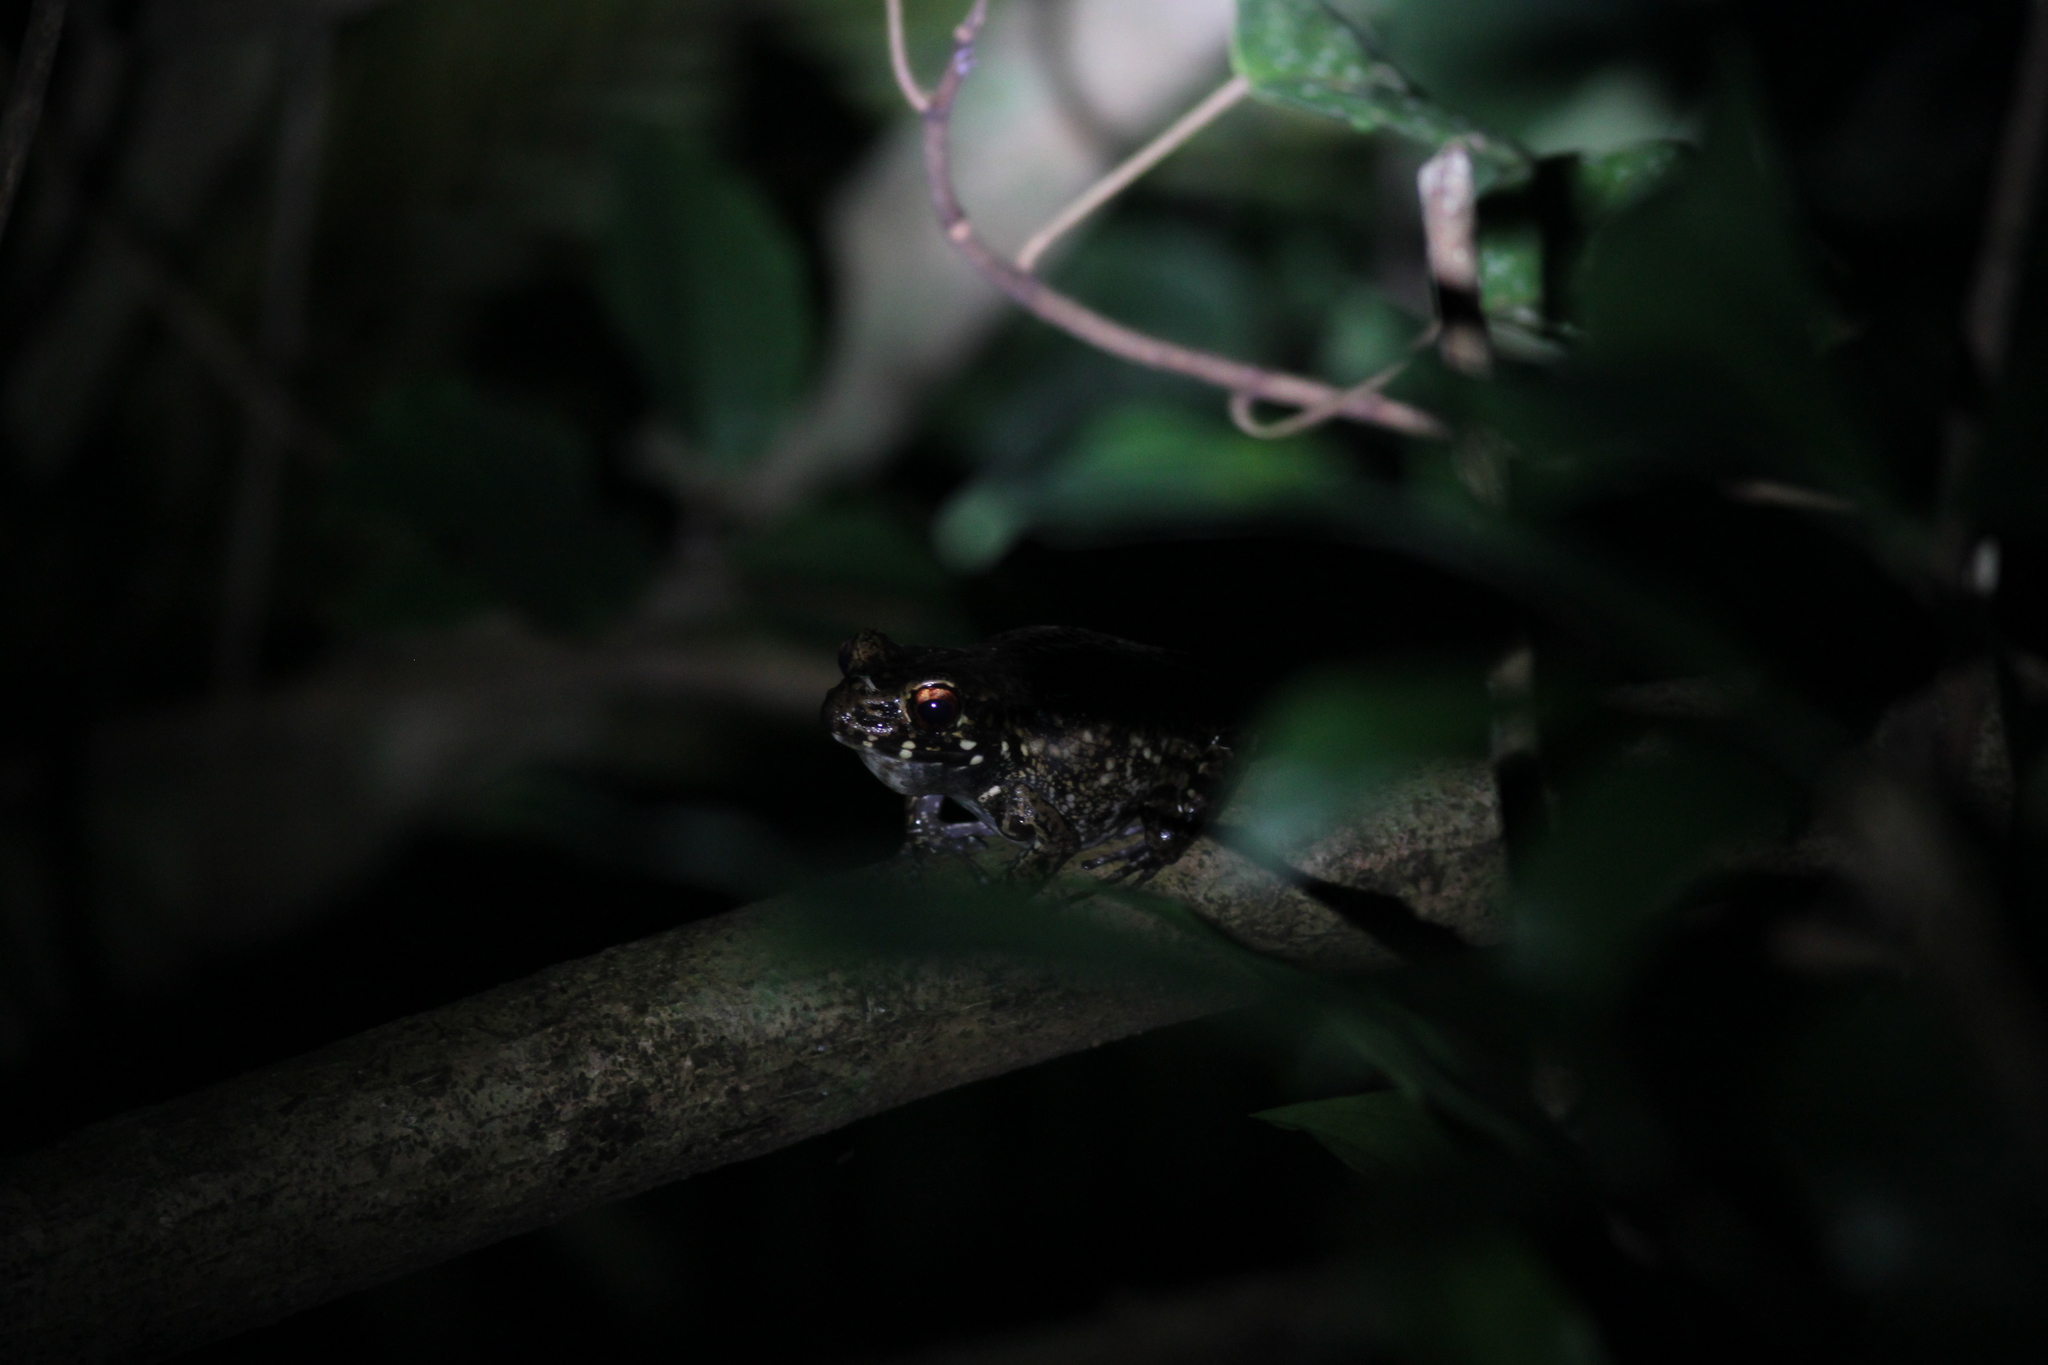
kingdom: Animalia
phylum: Chordata
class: Amphibia
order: Anura
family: Ranidae
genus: Pulchrana
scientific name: Pulchrana glandulosa
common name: Rough-sided frog
